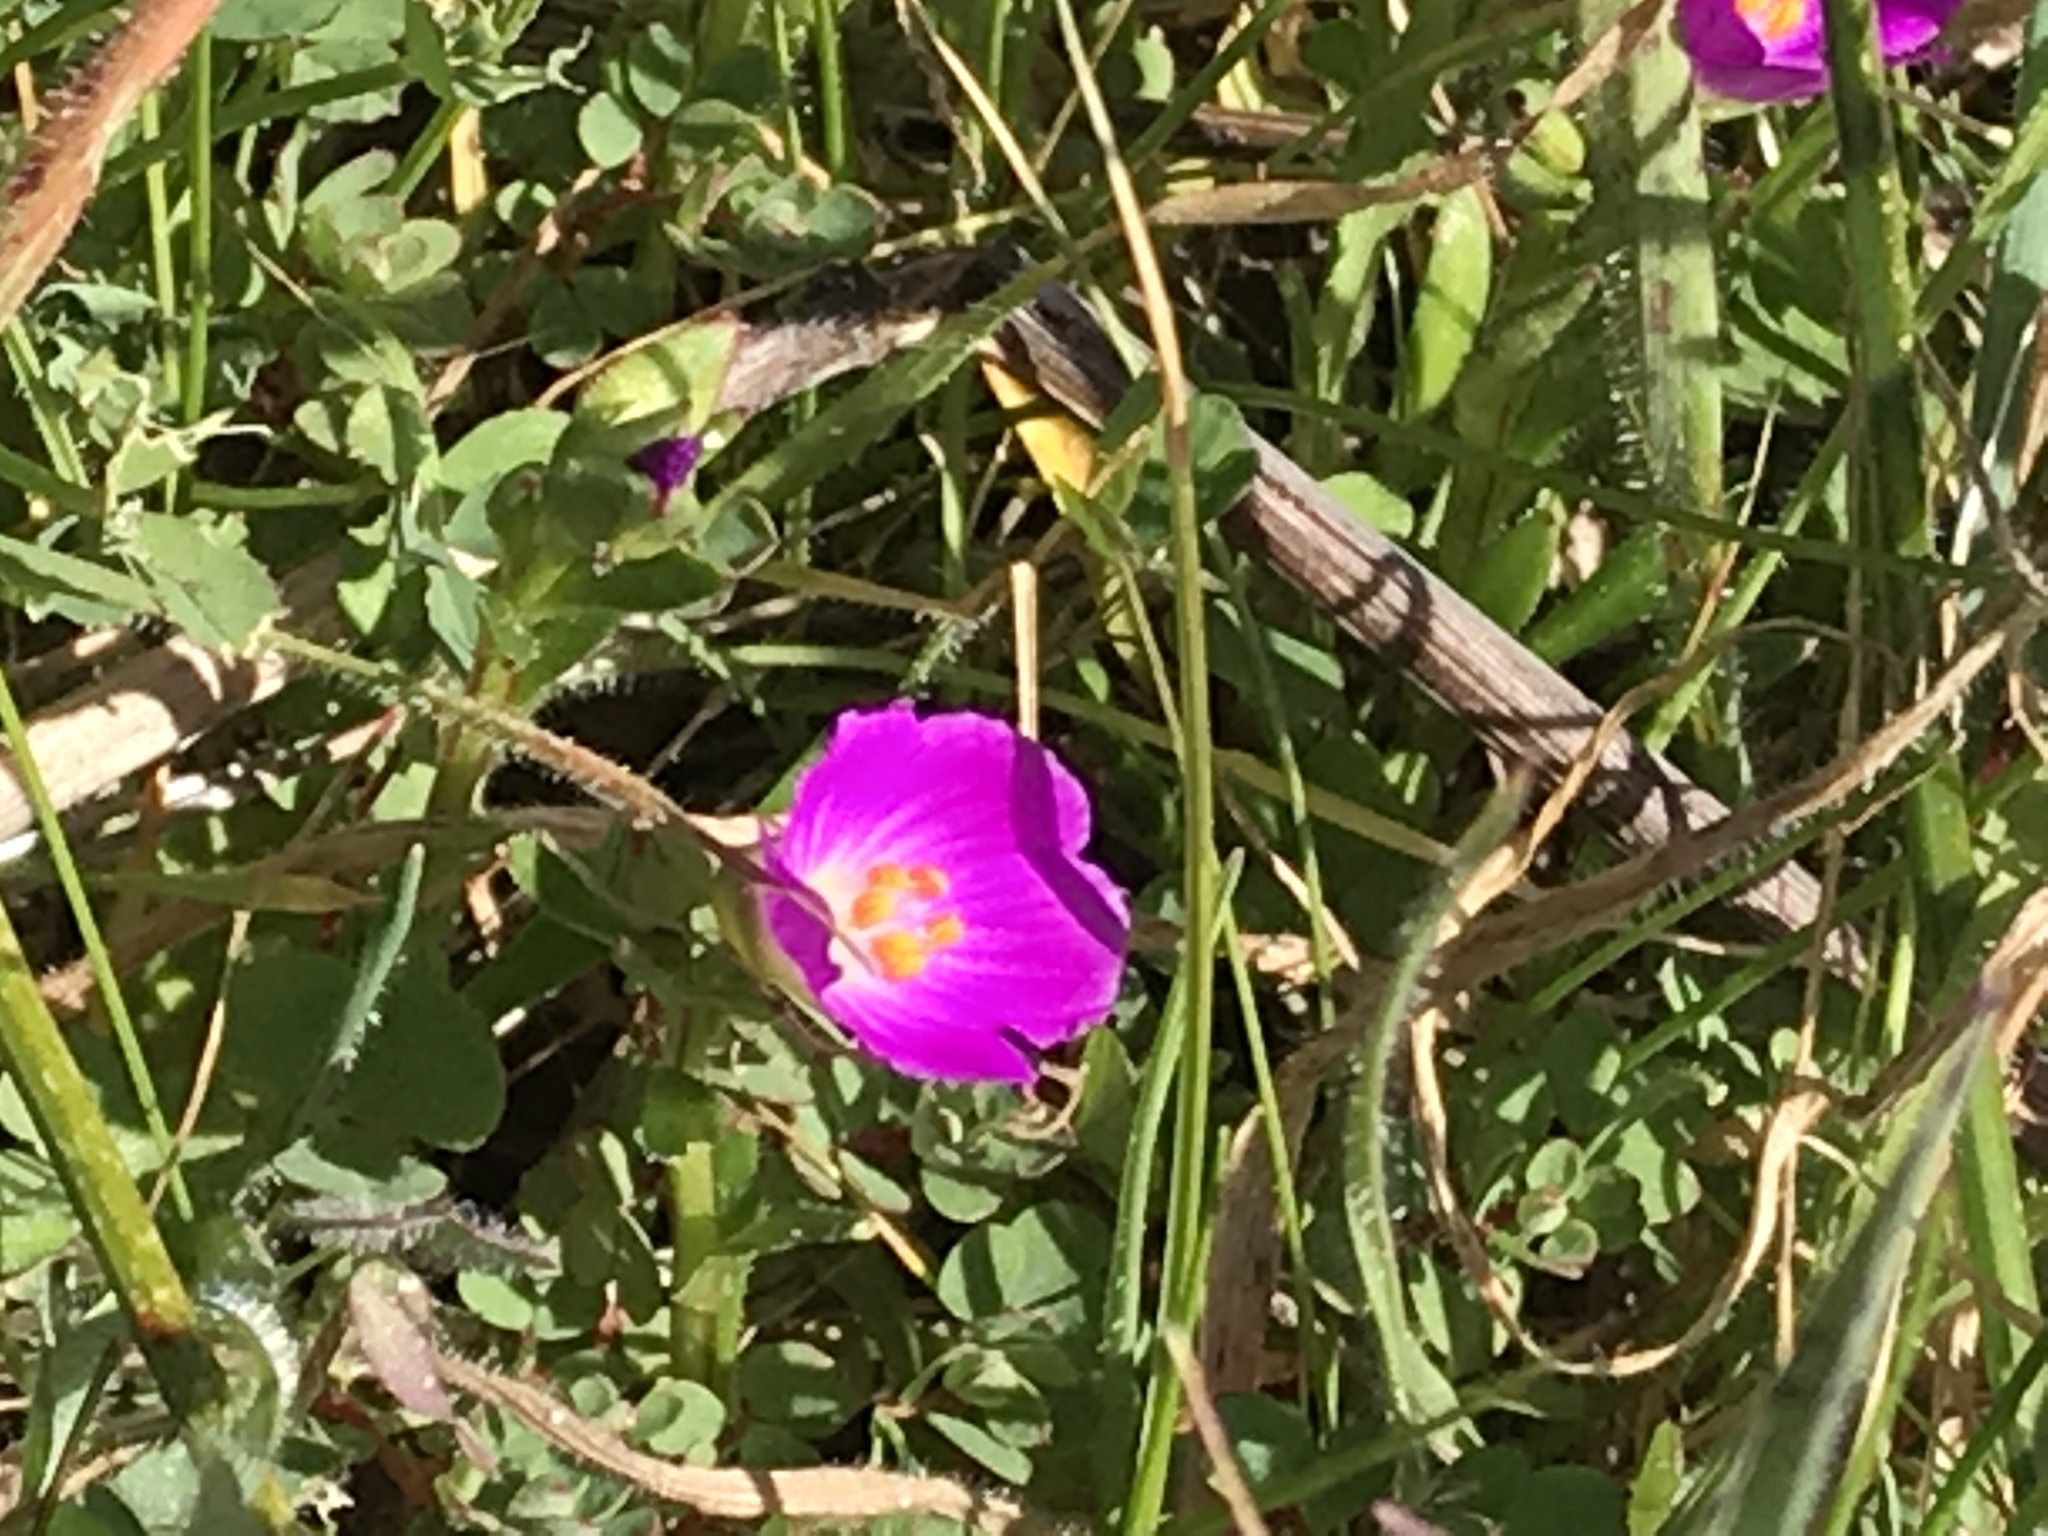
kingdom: Plantae
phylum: Tracheophyta
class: Magnoliopsida
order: Caryophyllales
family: Montiaceae
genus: Calandrinia
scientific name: Calandrinia menziesii
